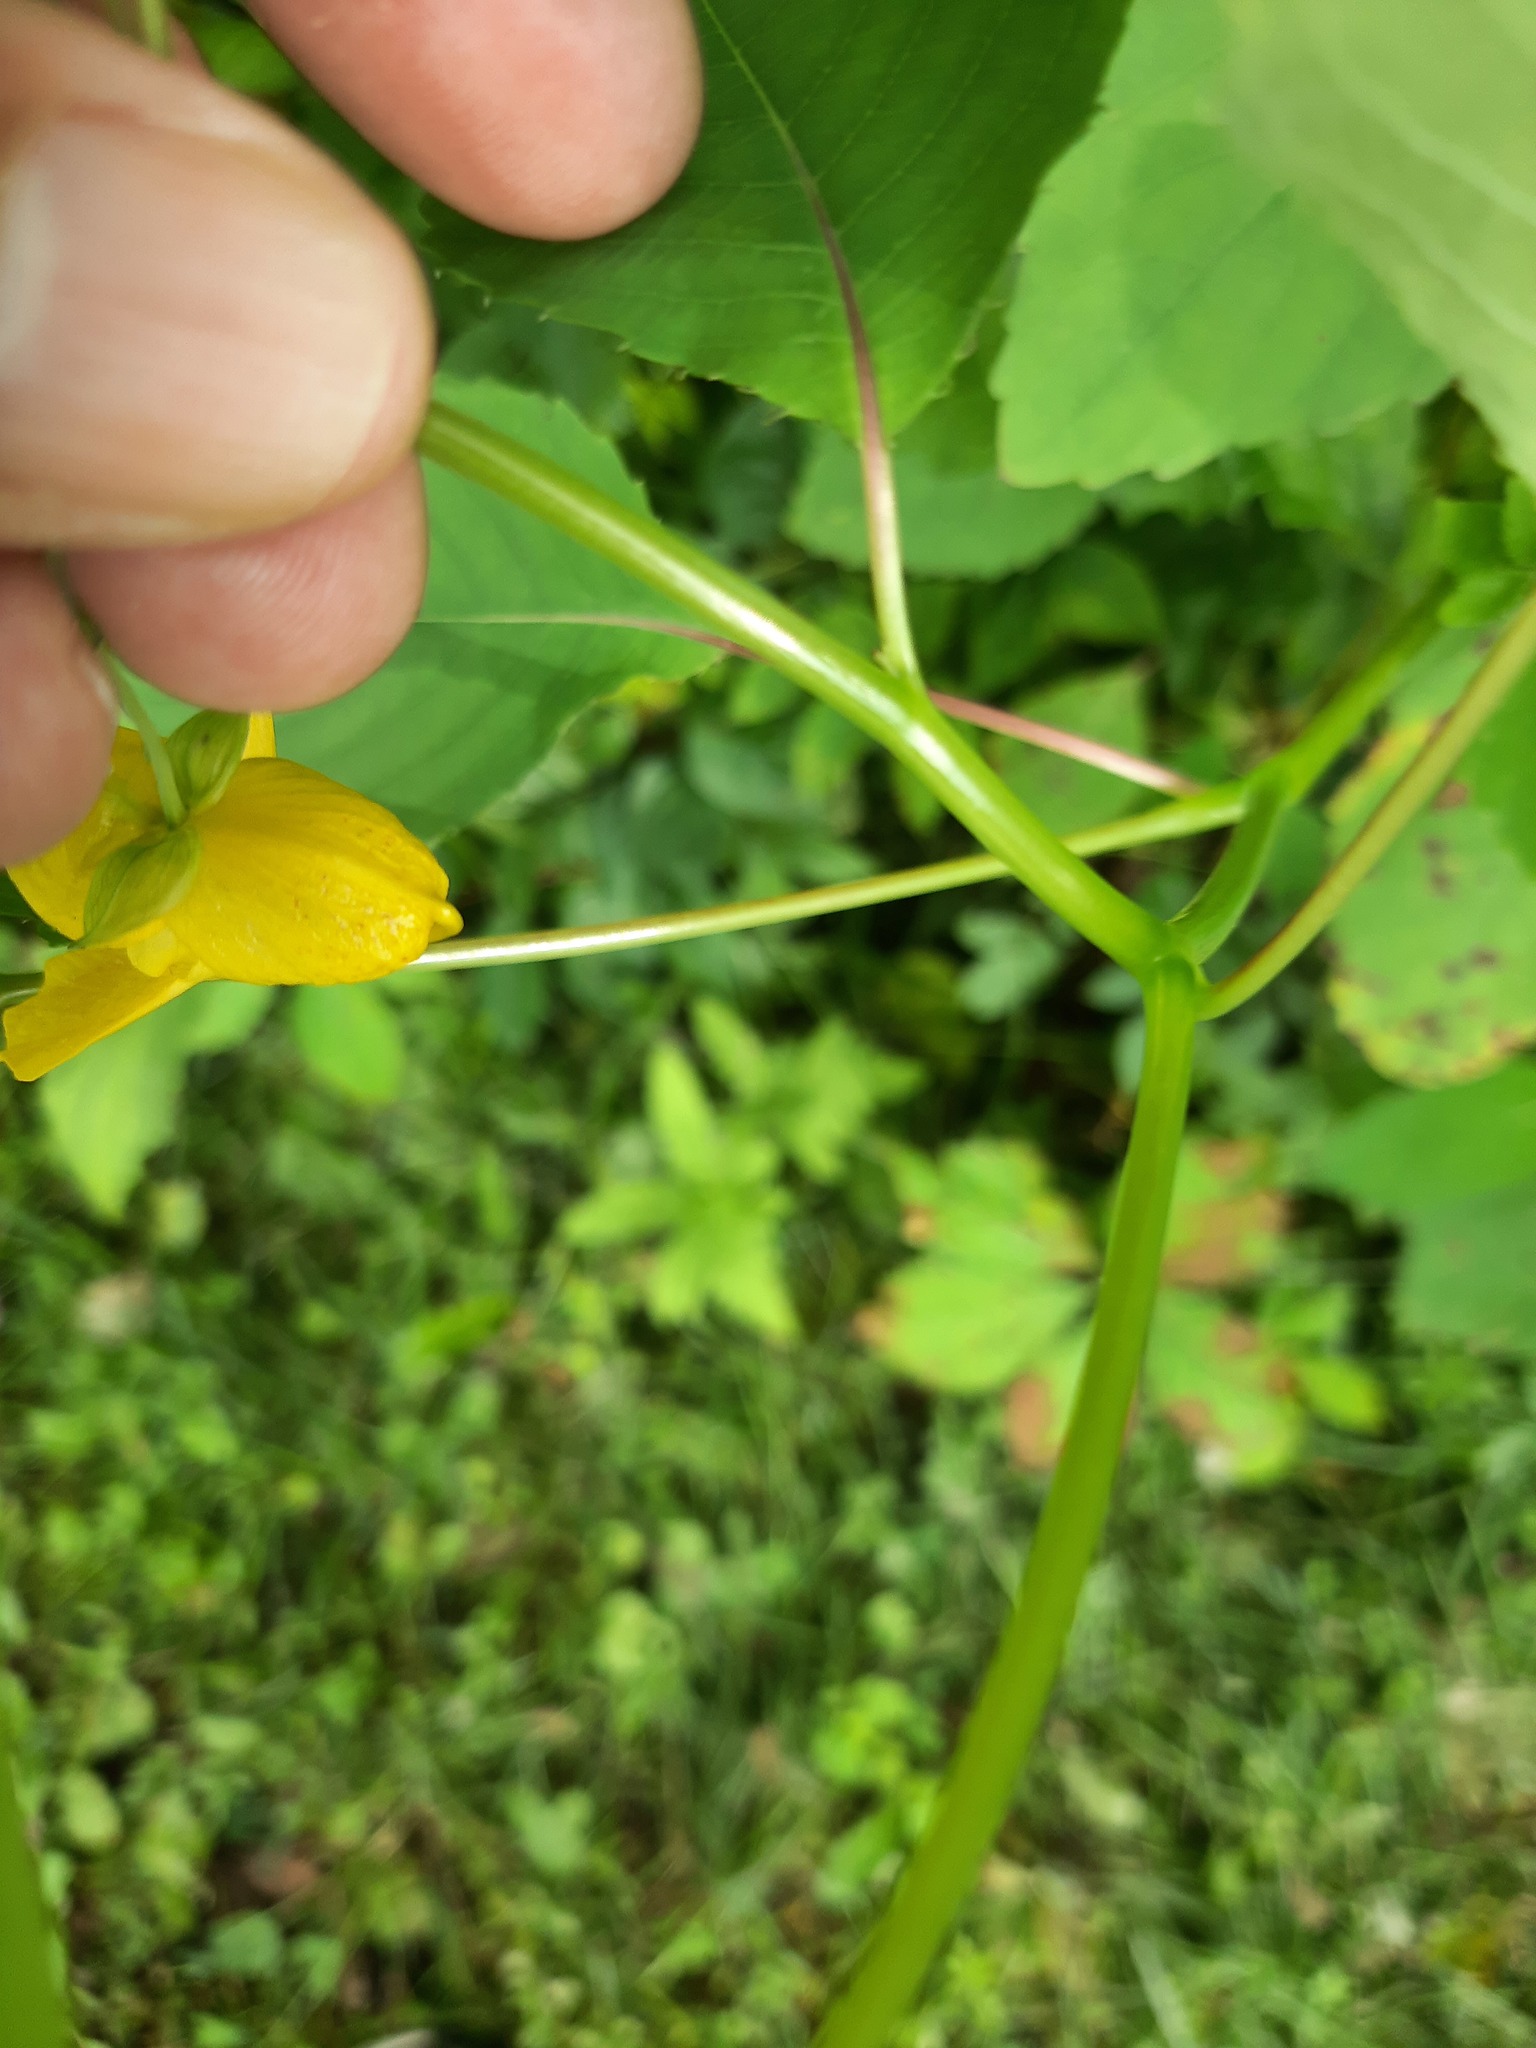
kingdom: Plantae
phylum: Tracheophyta
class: Magnoliopsida
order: Ericales
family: Balsaminaceae
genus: Impatiens
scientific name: Impatiens capensis
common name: Orange balsam
